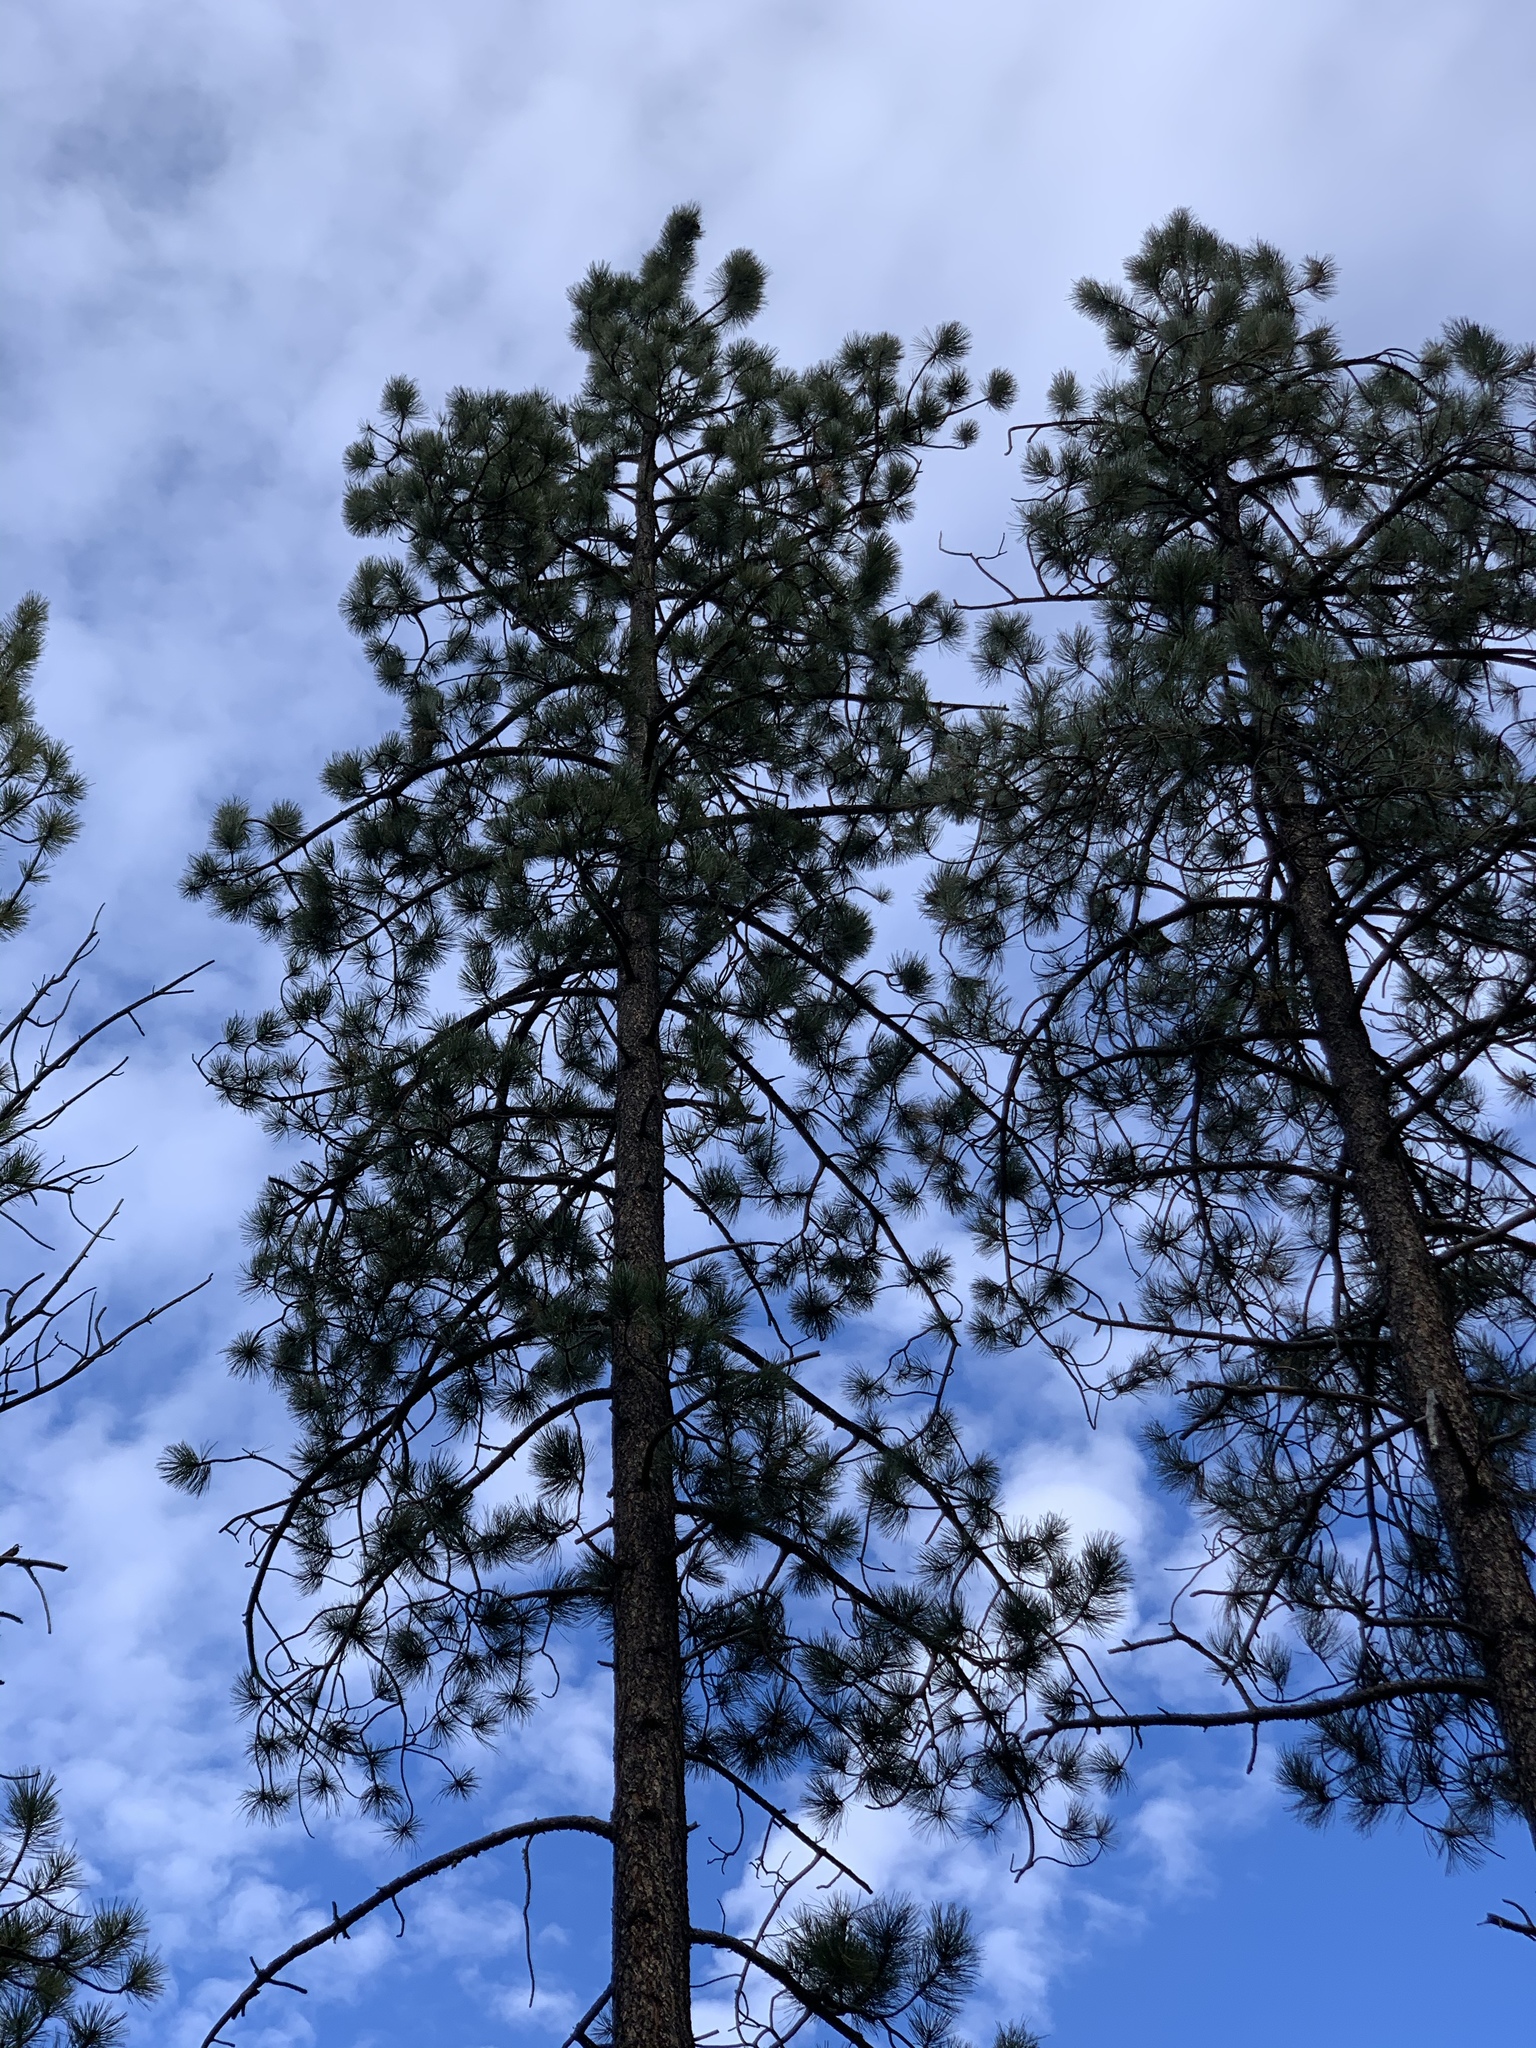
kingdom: Plantae
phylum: Tracheophyta
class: Pinopsida
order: Pinales
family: Pinaceae
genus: Pinus
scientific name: Pinus ponderosa
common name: Western yellow-pine
